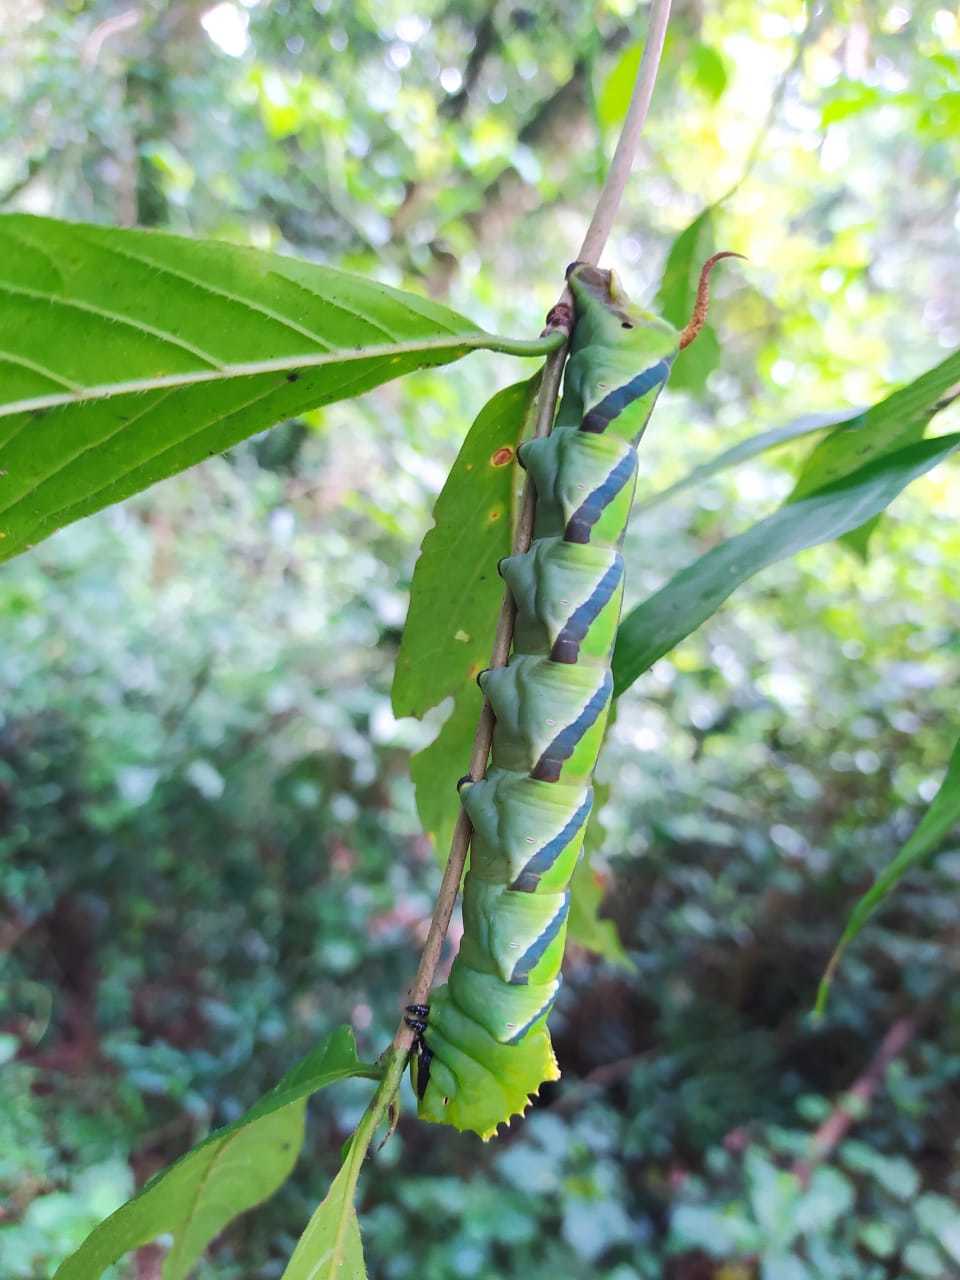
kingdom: Animalia
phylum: Arthropoda
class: Insecta
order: Lepidoptera
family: Sphingidae
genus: Coelonia
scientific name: Coelonia fulvinotata
